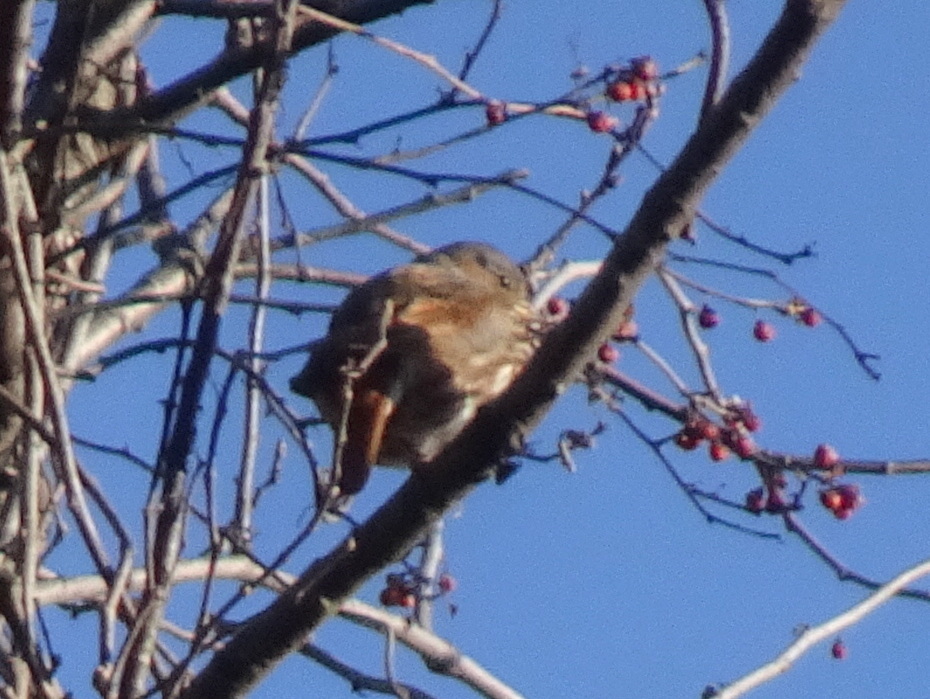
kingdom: Animalia
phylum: Chordata
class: Aves
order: Passeriformes
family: Passerellidae
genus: Passerella
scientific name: Passerella iliaca
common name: Fox sparrow
